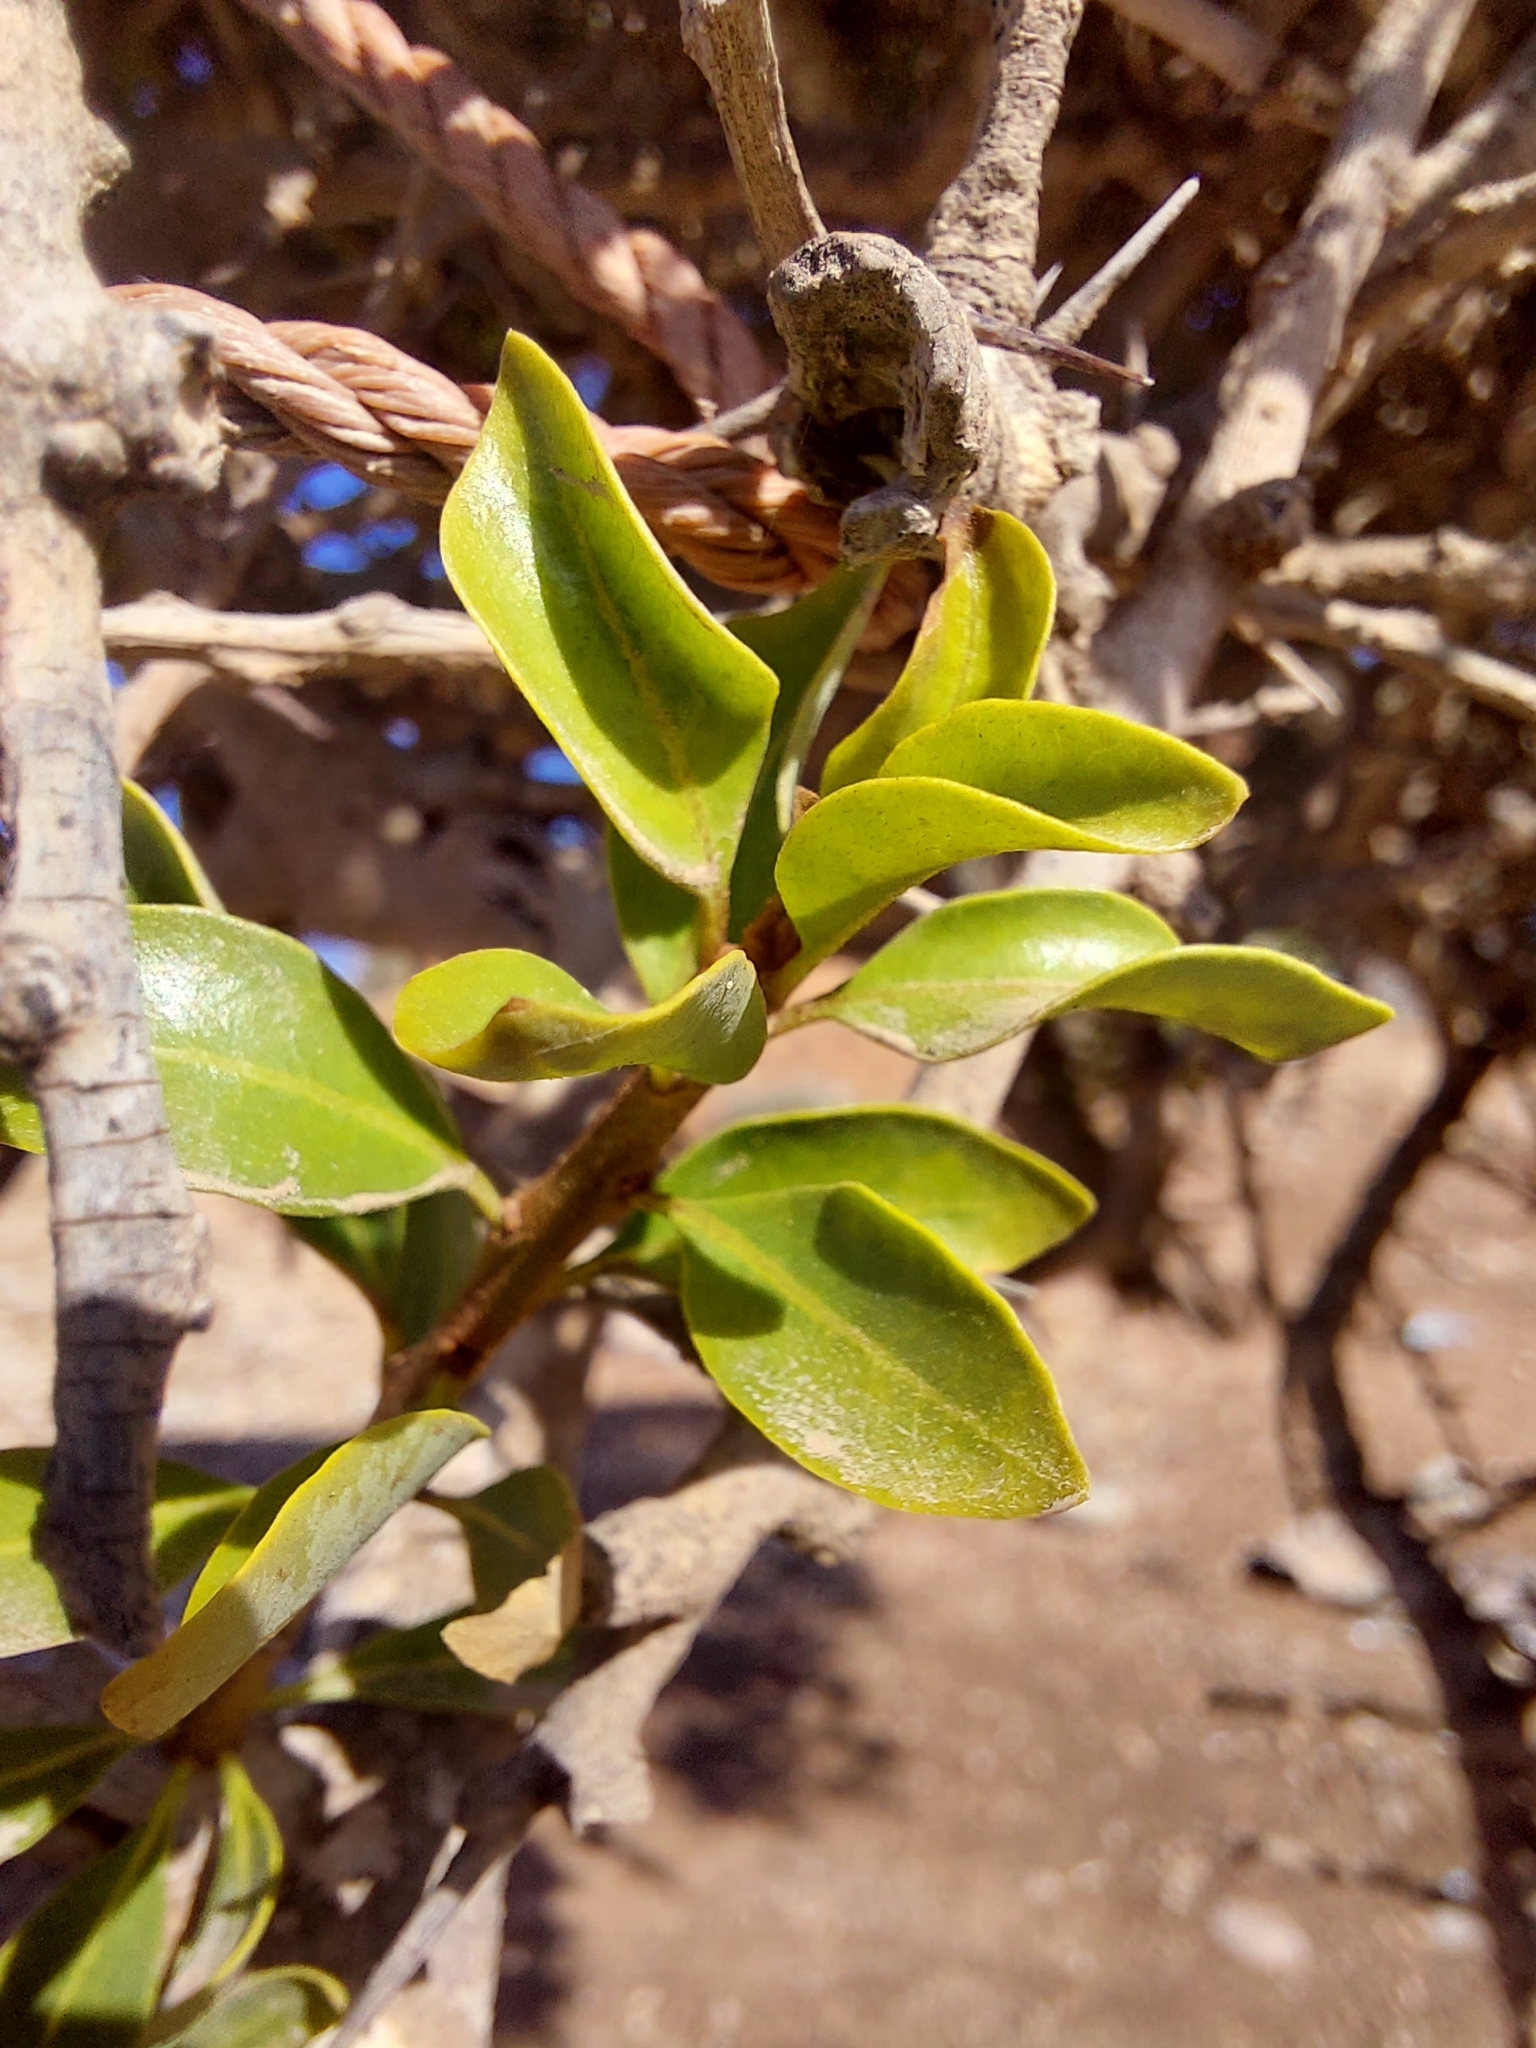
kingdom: Plantae
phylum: Tracheophyta
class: Magnoliopsida
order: Ericales
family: Sapotaceae
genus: Sideroxylon
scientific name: Sideroxylon spinosum
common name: Argan
